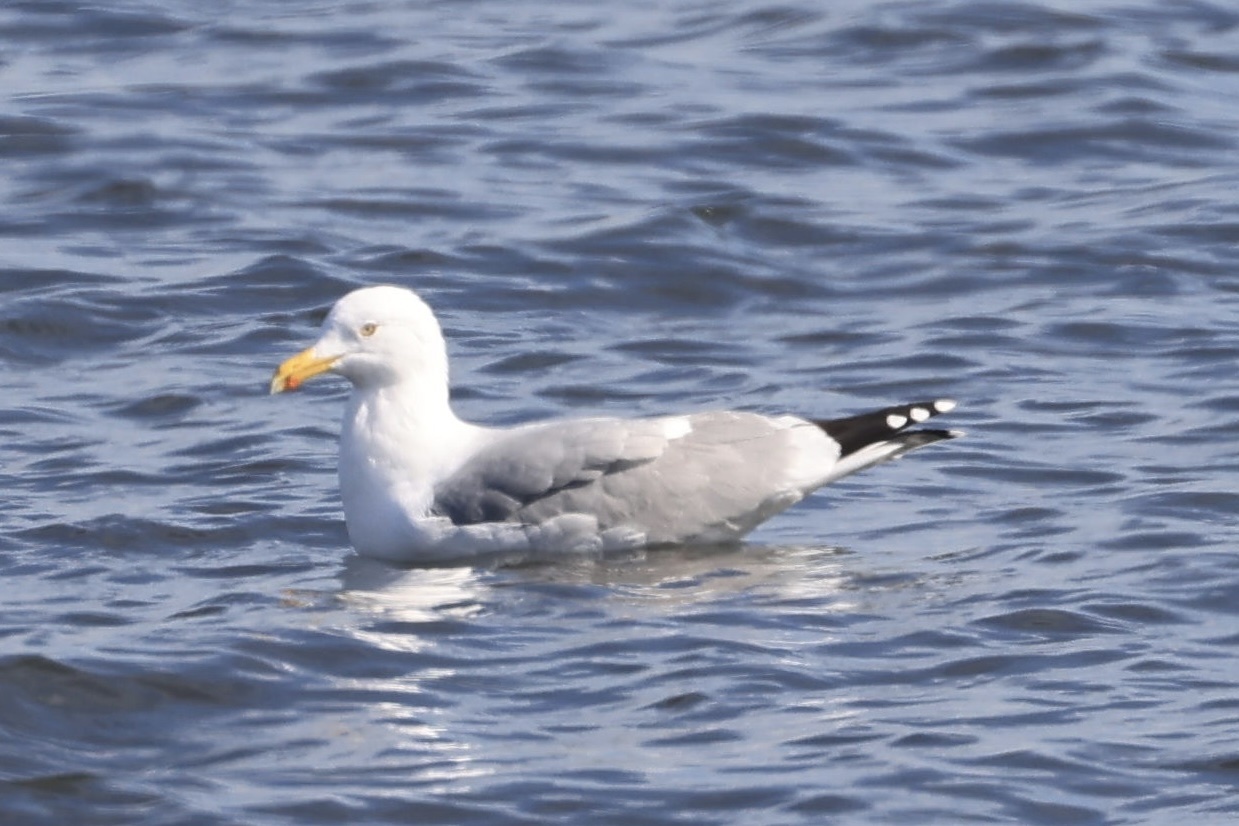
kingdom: Animalia
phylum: Chordata
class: Aves
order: Charadriiformes
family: Laridae
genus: Larus
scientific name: Larus argentatus
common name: Herring gull
